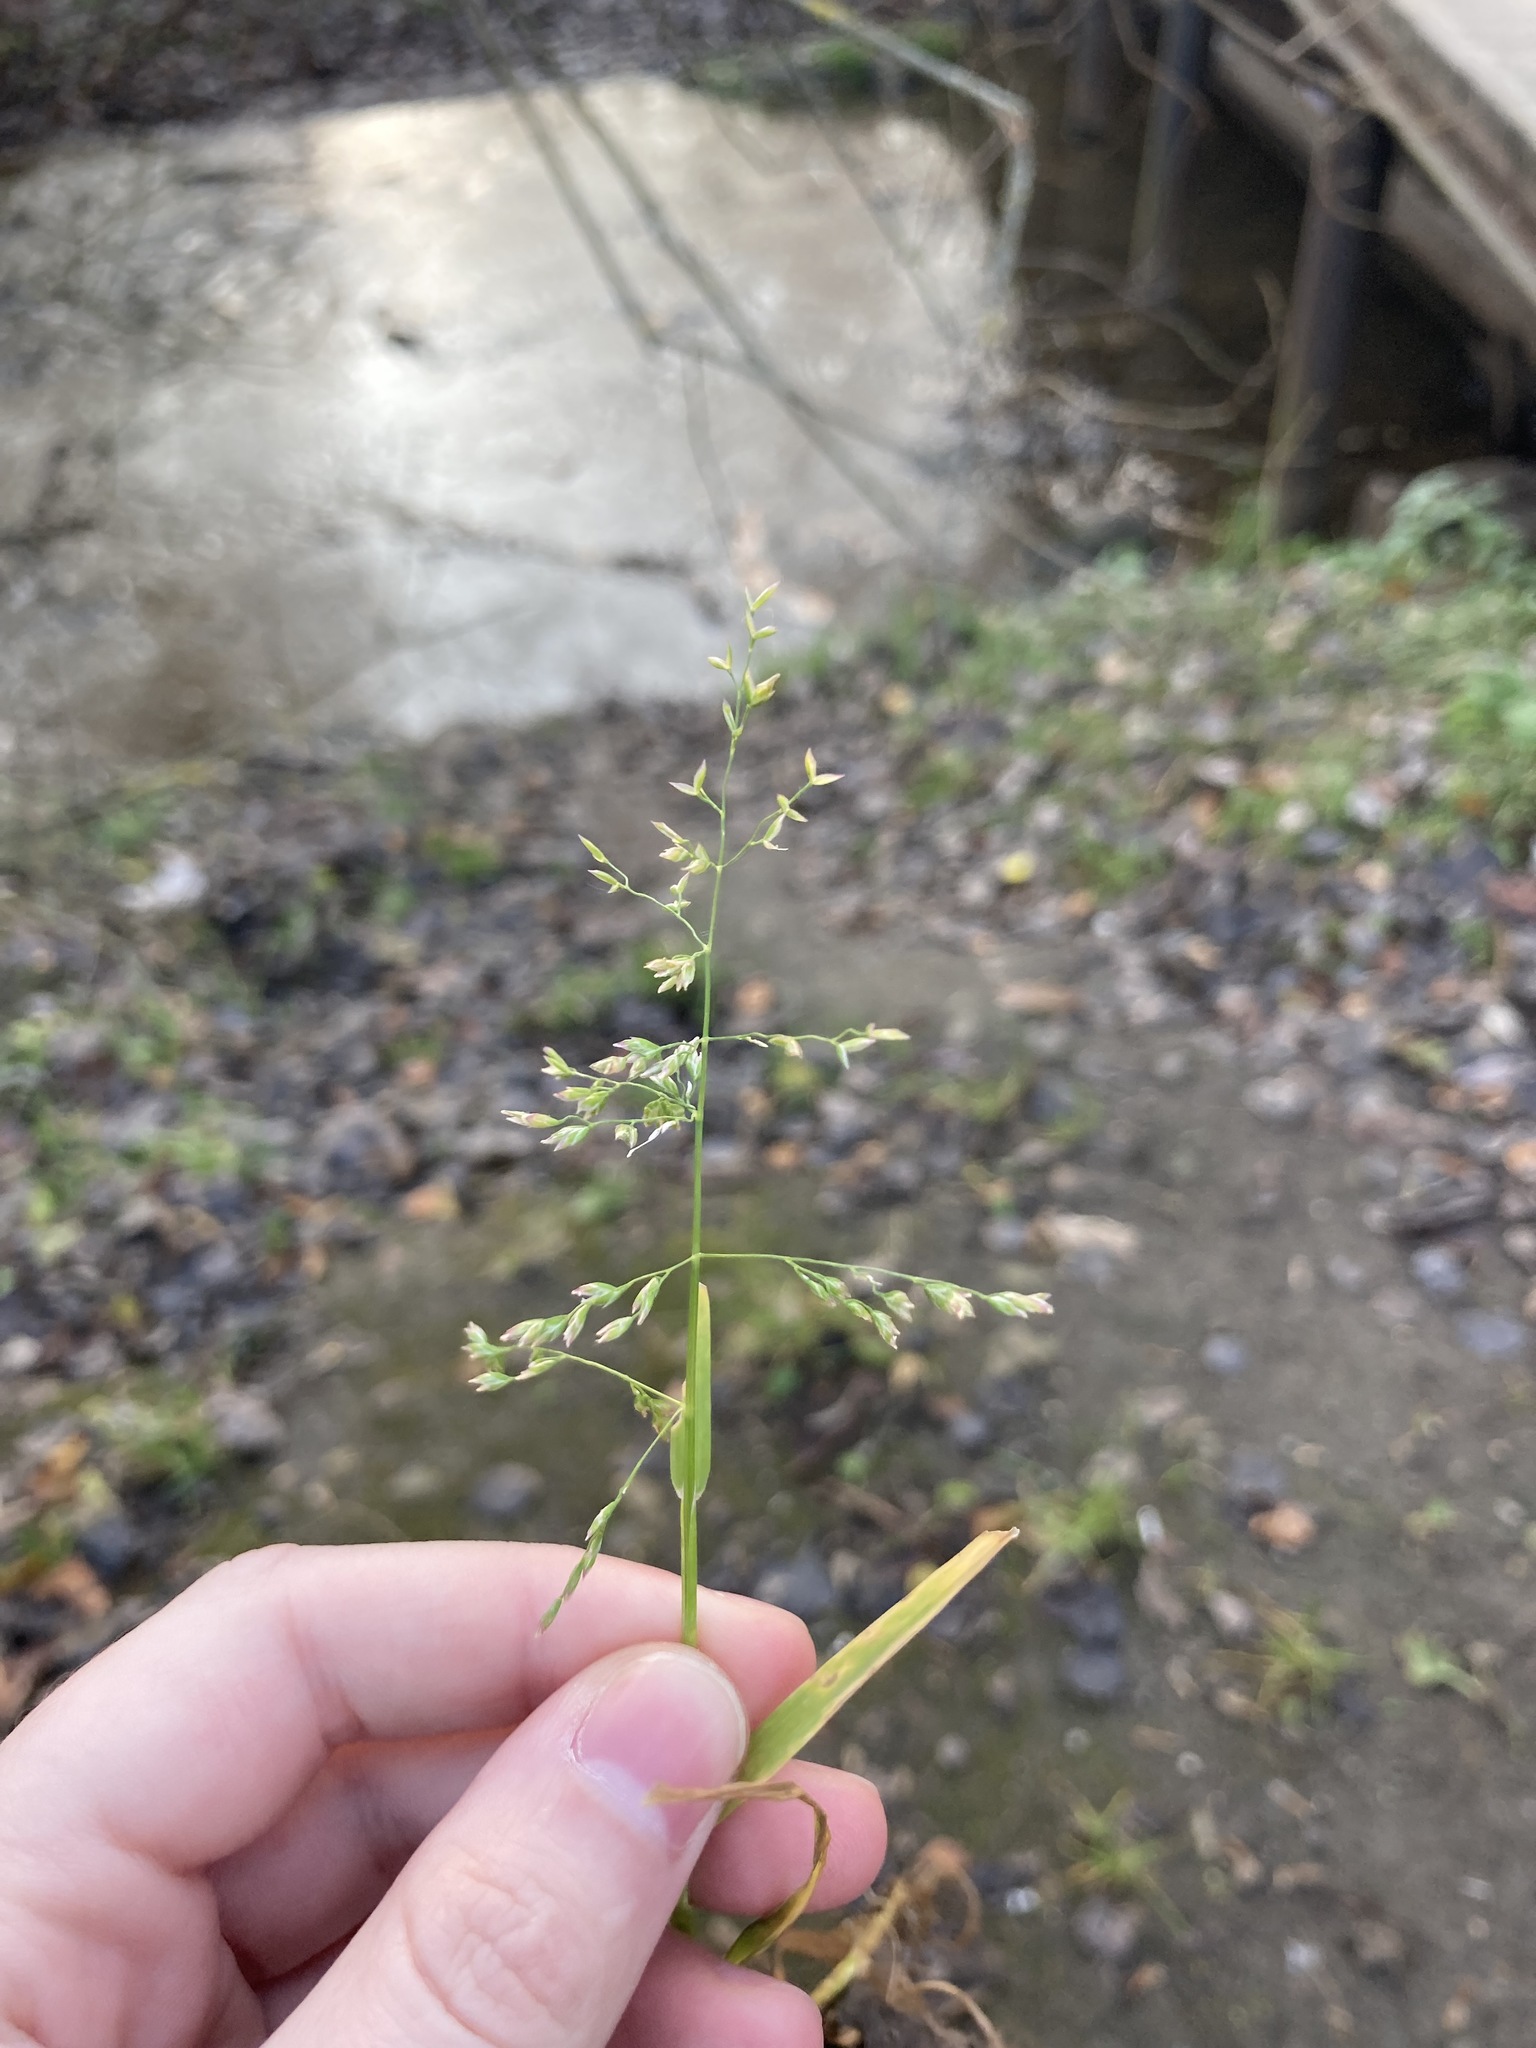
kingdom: Plantae
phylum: Tracheophyta
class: Liliopsida
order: Poales
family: Poaceae
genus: Poa
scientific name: Poa annua
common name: Annual bluegrass
